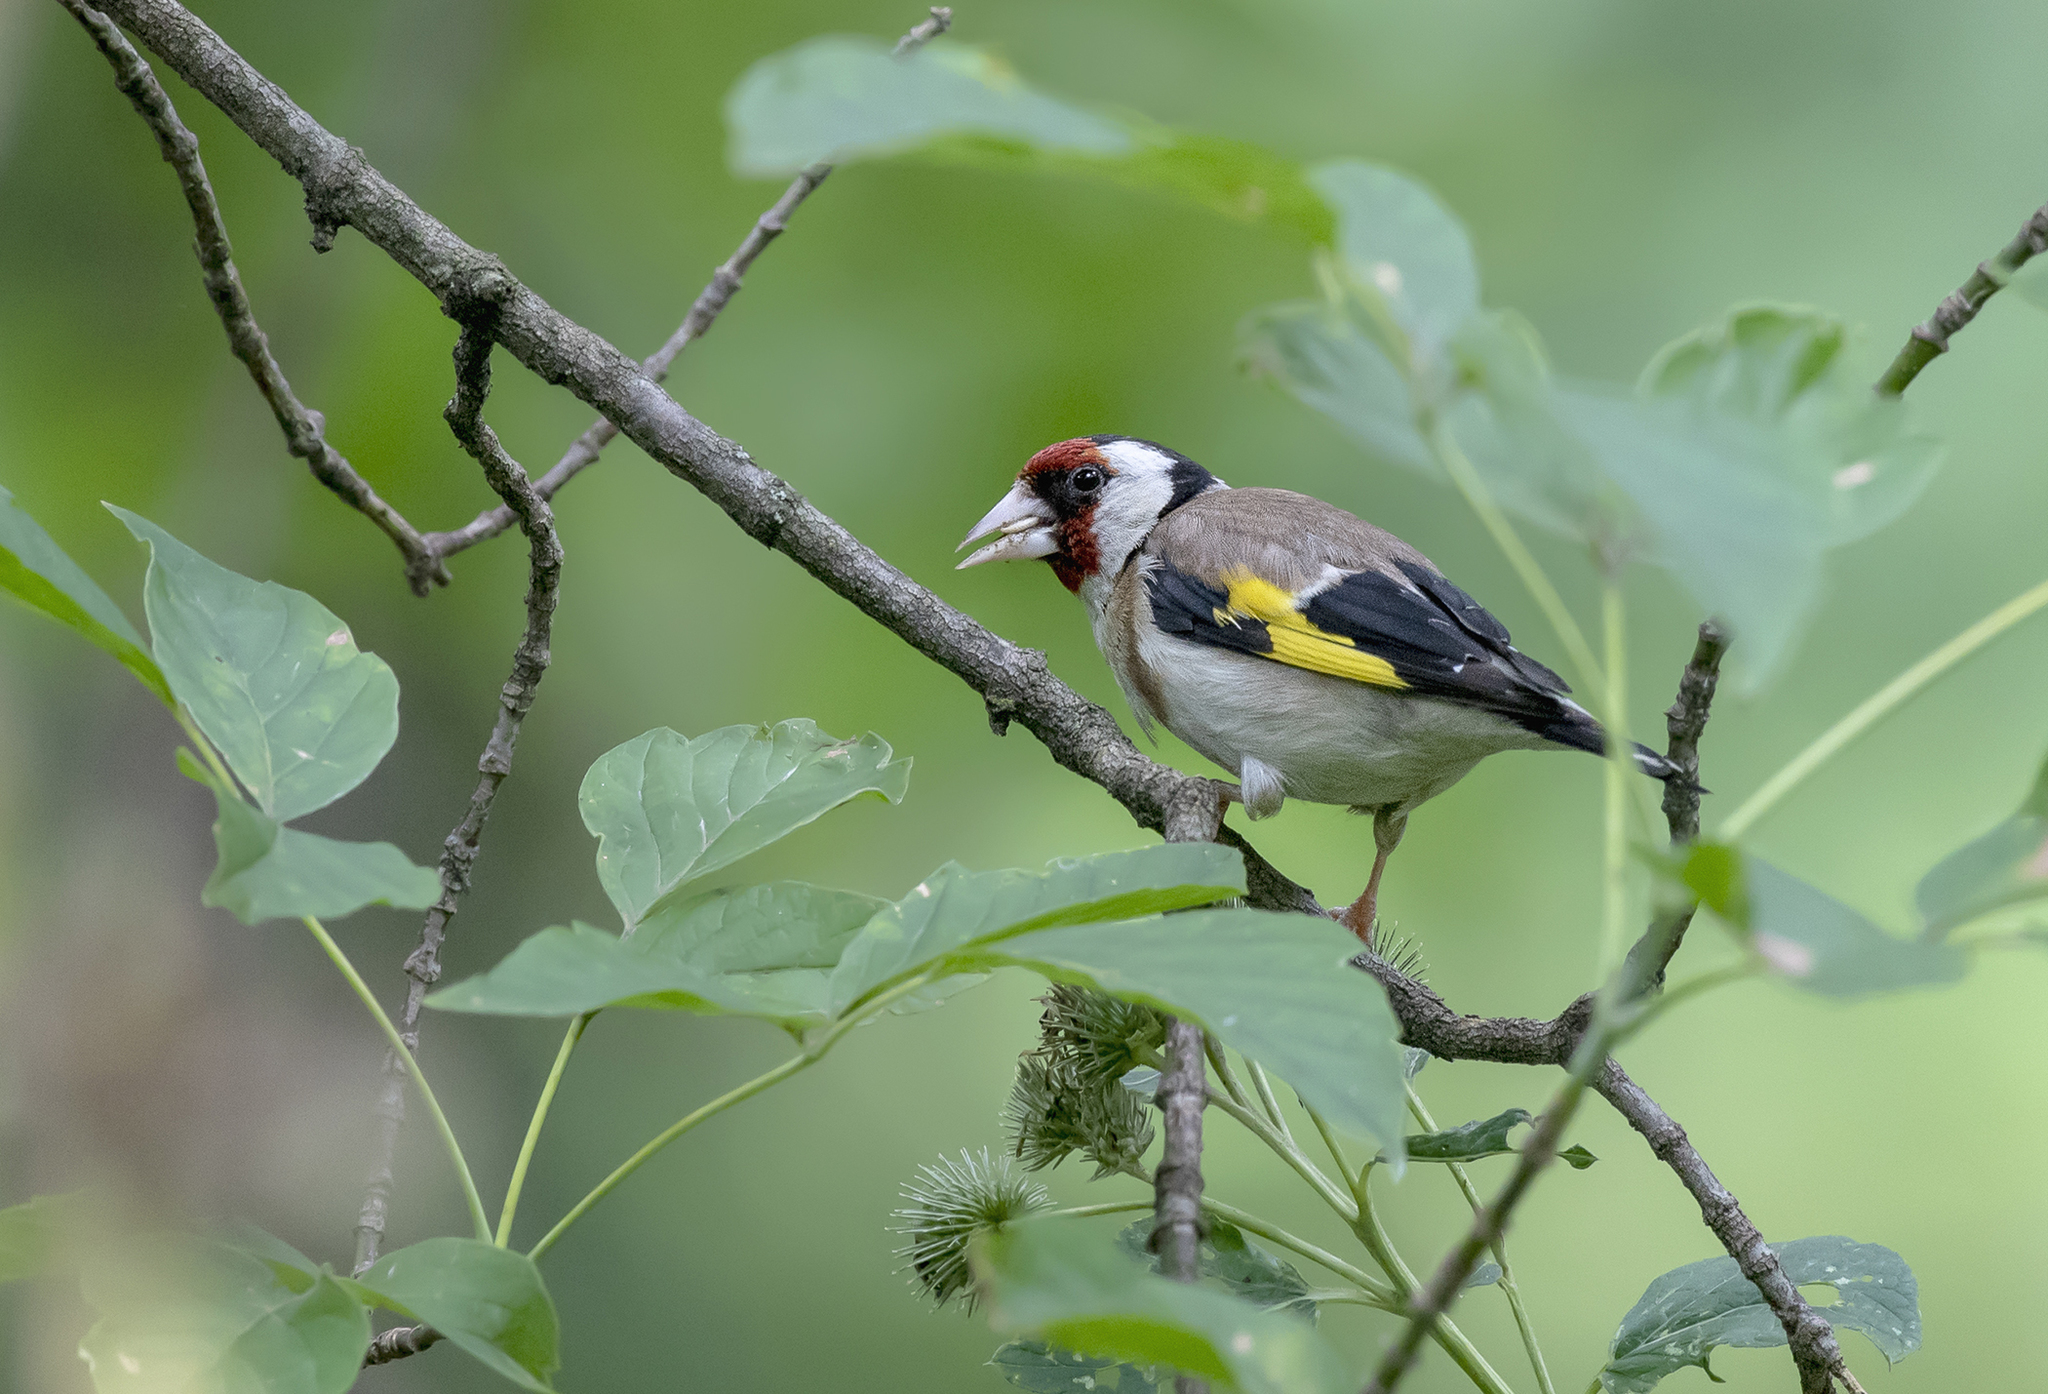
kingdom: Animalia
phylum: Chordata
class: Aves
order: Passeriformes
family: Fringillidae
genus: Carduelis
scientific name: Carduelis carduelis
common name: European goldfinch
